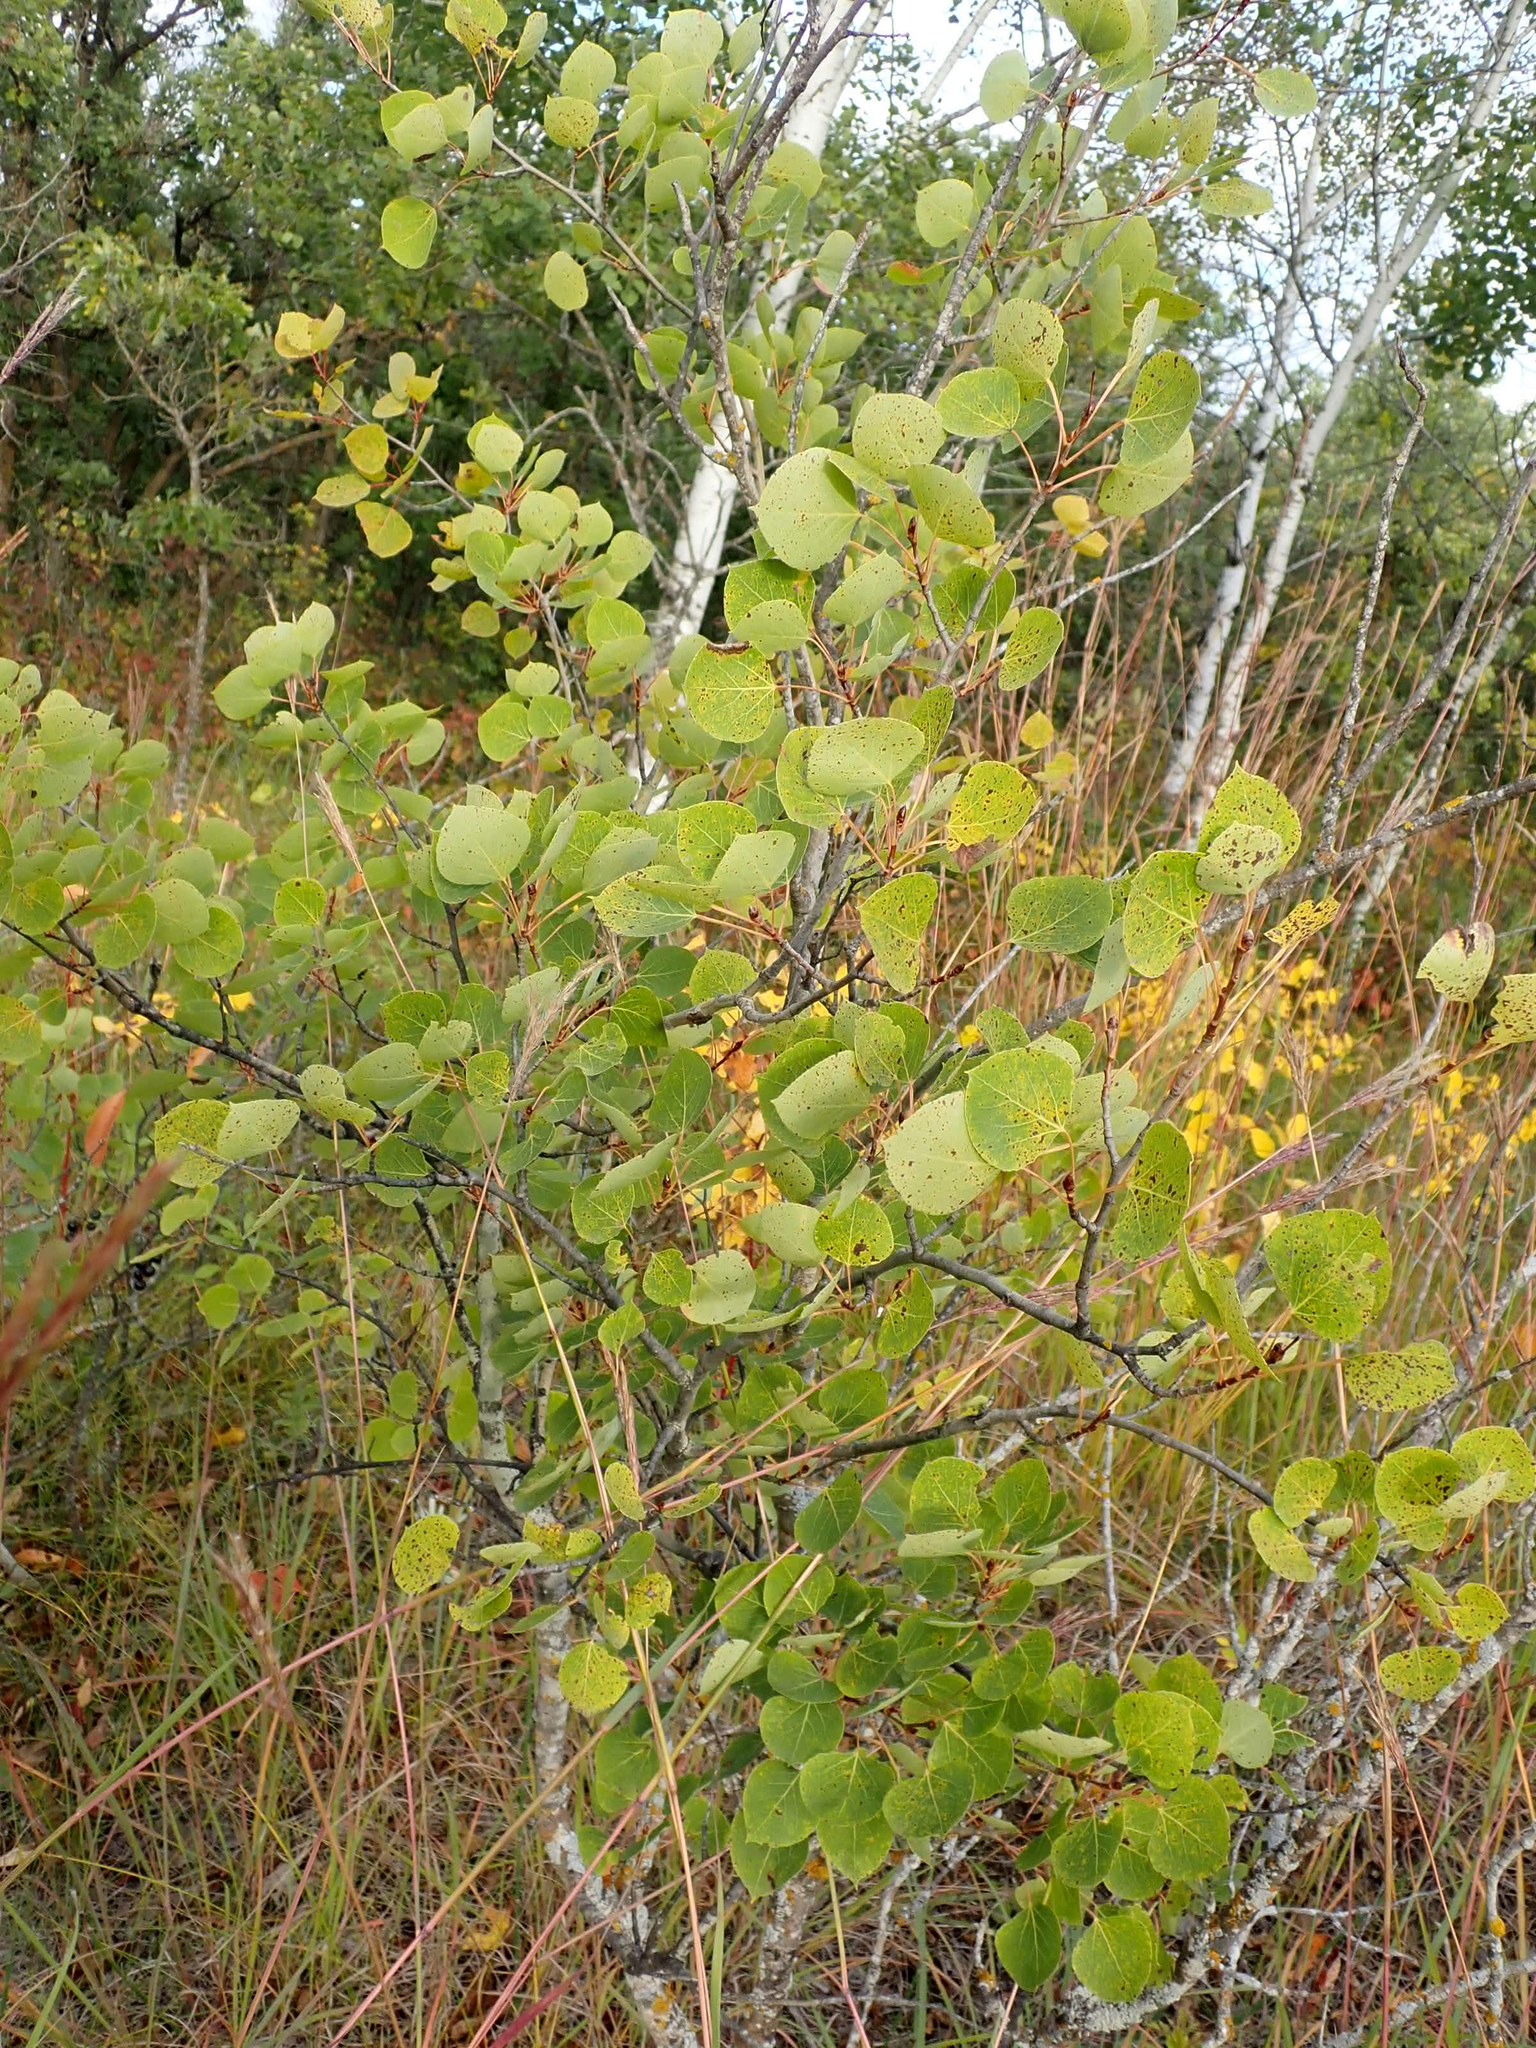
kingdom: Plantae
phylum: Tracheophyta
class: Magnoliopsida
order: Malpighiales
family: Salicaceae
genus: Populus
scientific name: Populus tremuloides
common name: Quaking aspen
